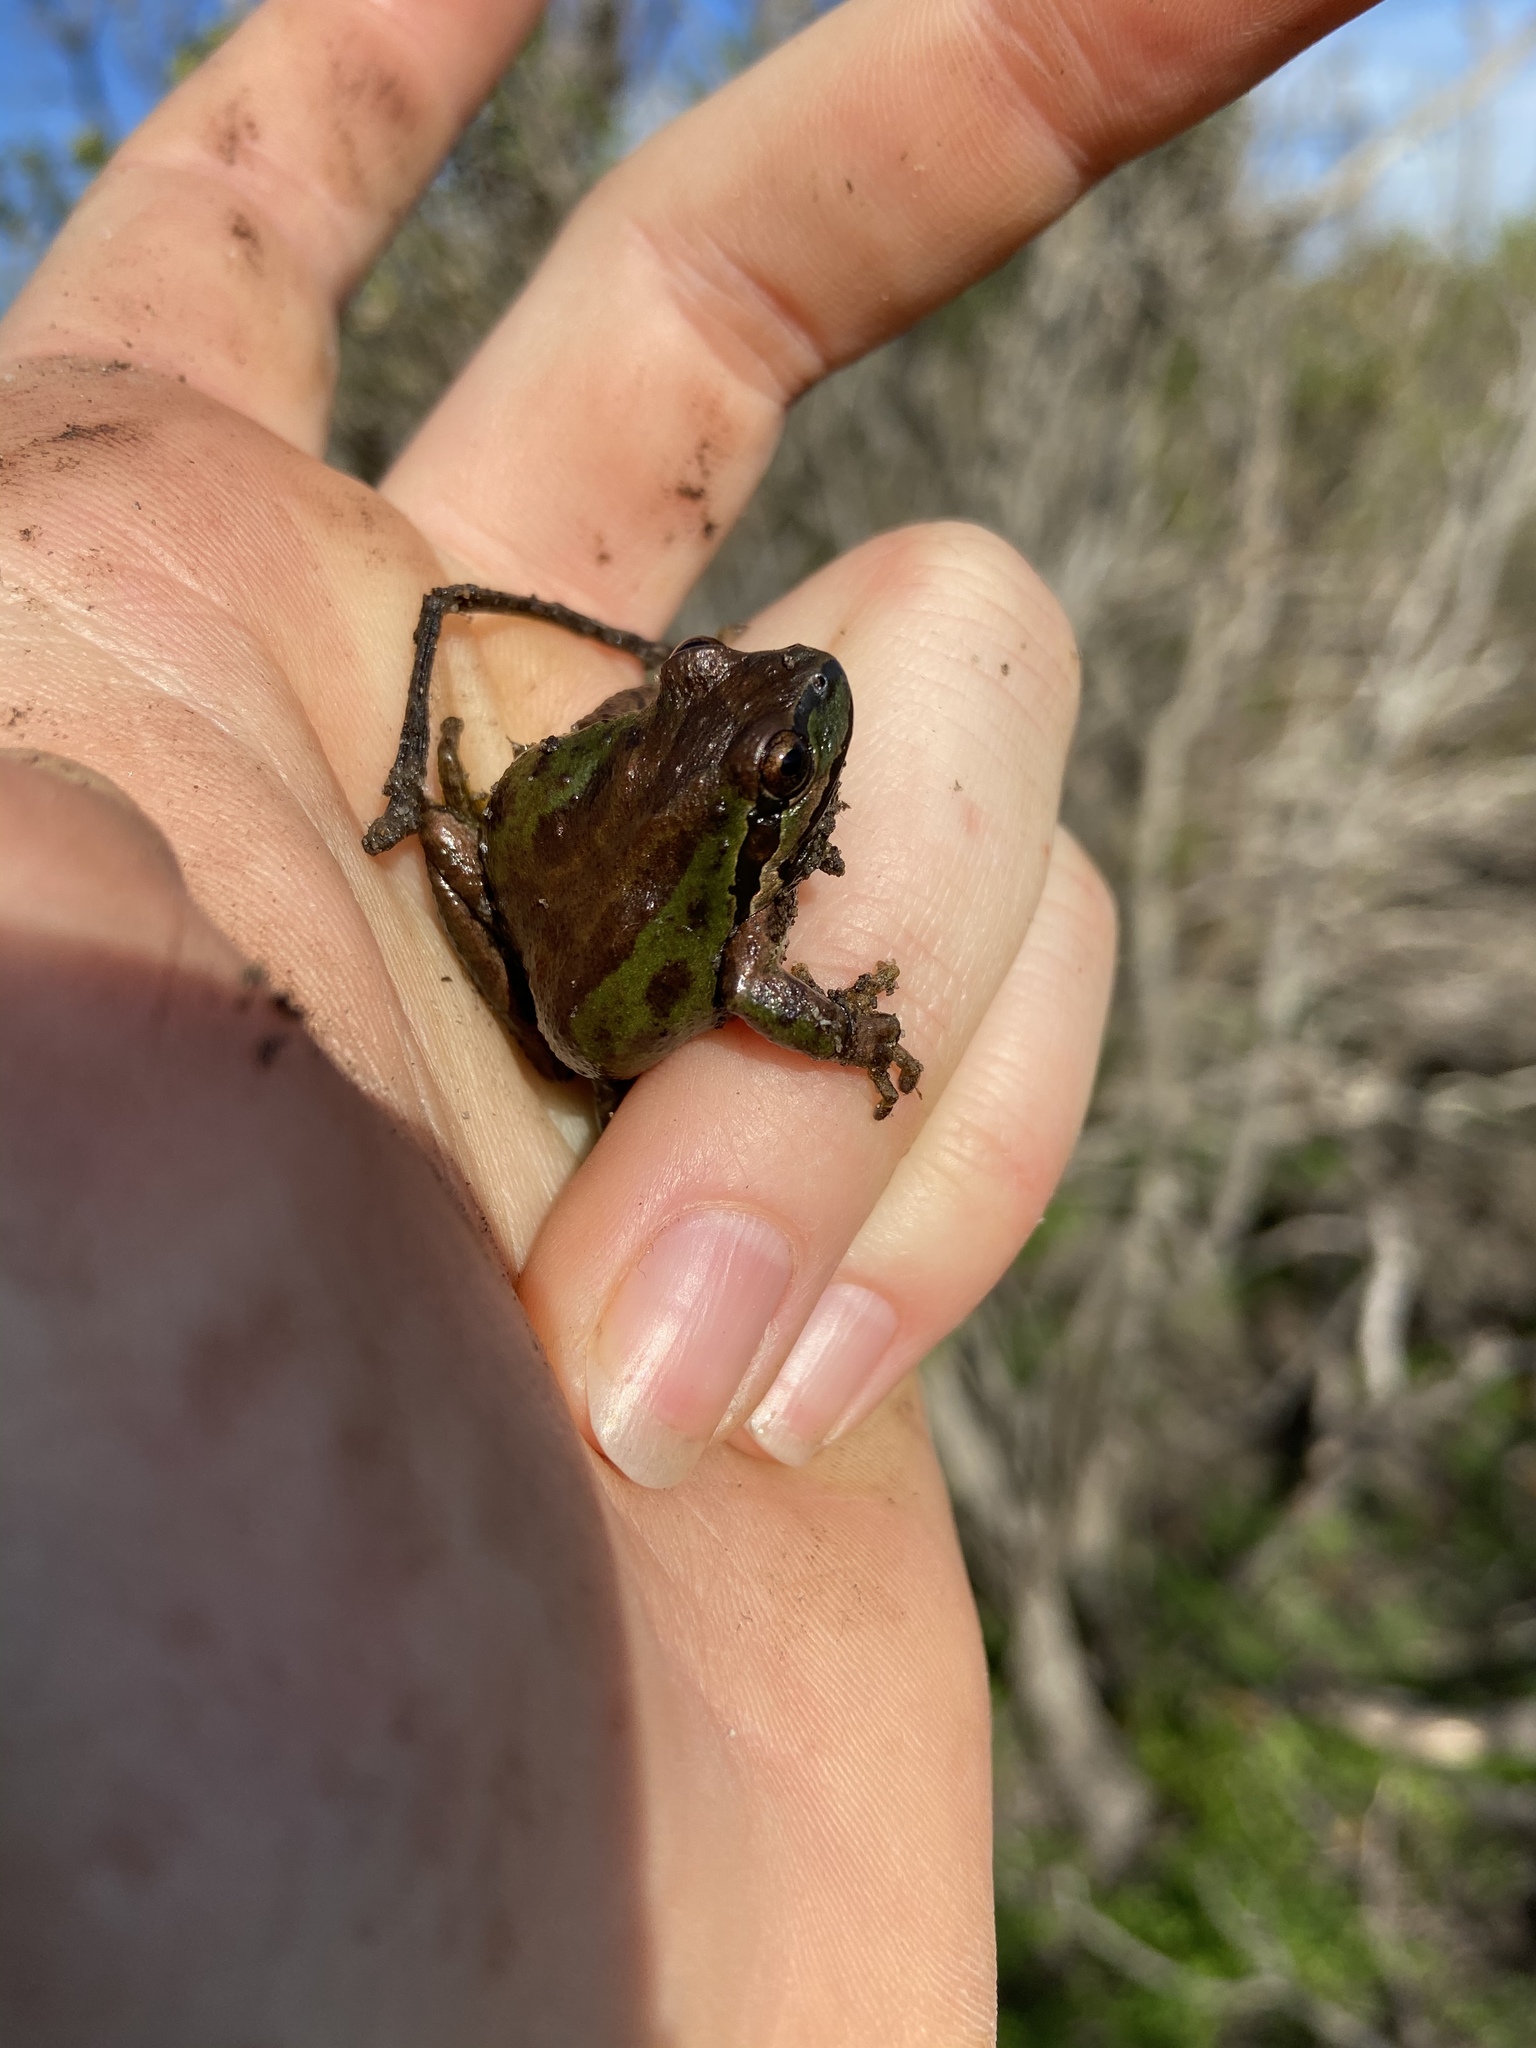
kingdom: Animalia
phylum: Chordata
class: Amphibia
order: Anura
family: Hylidae
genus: Pseudacris
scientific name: Pseudacris regilla
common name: Pacific chorus frog
